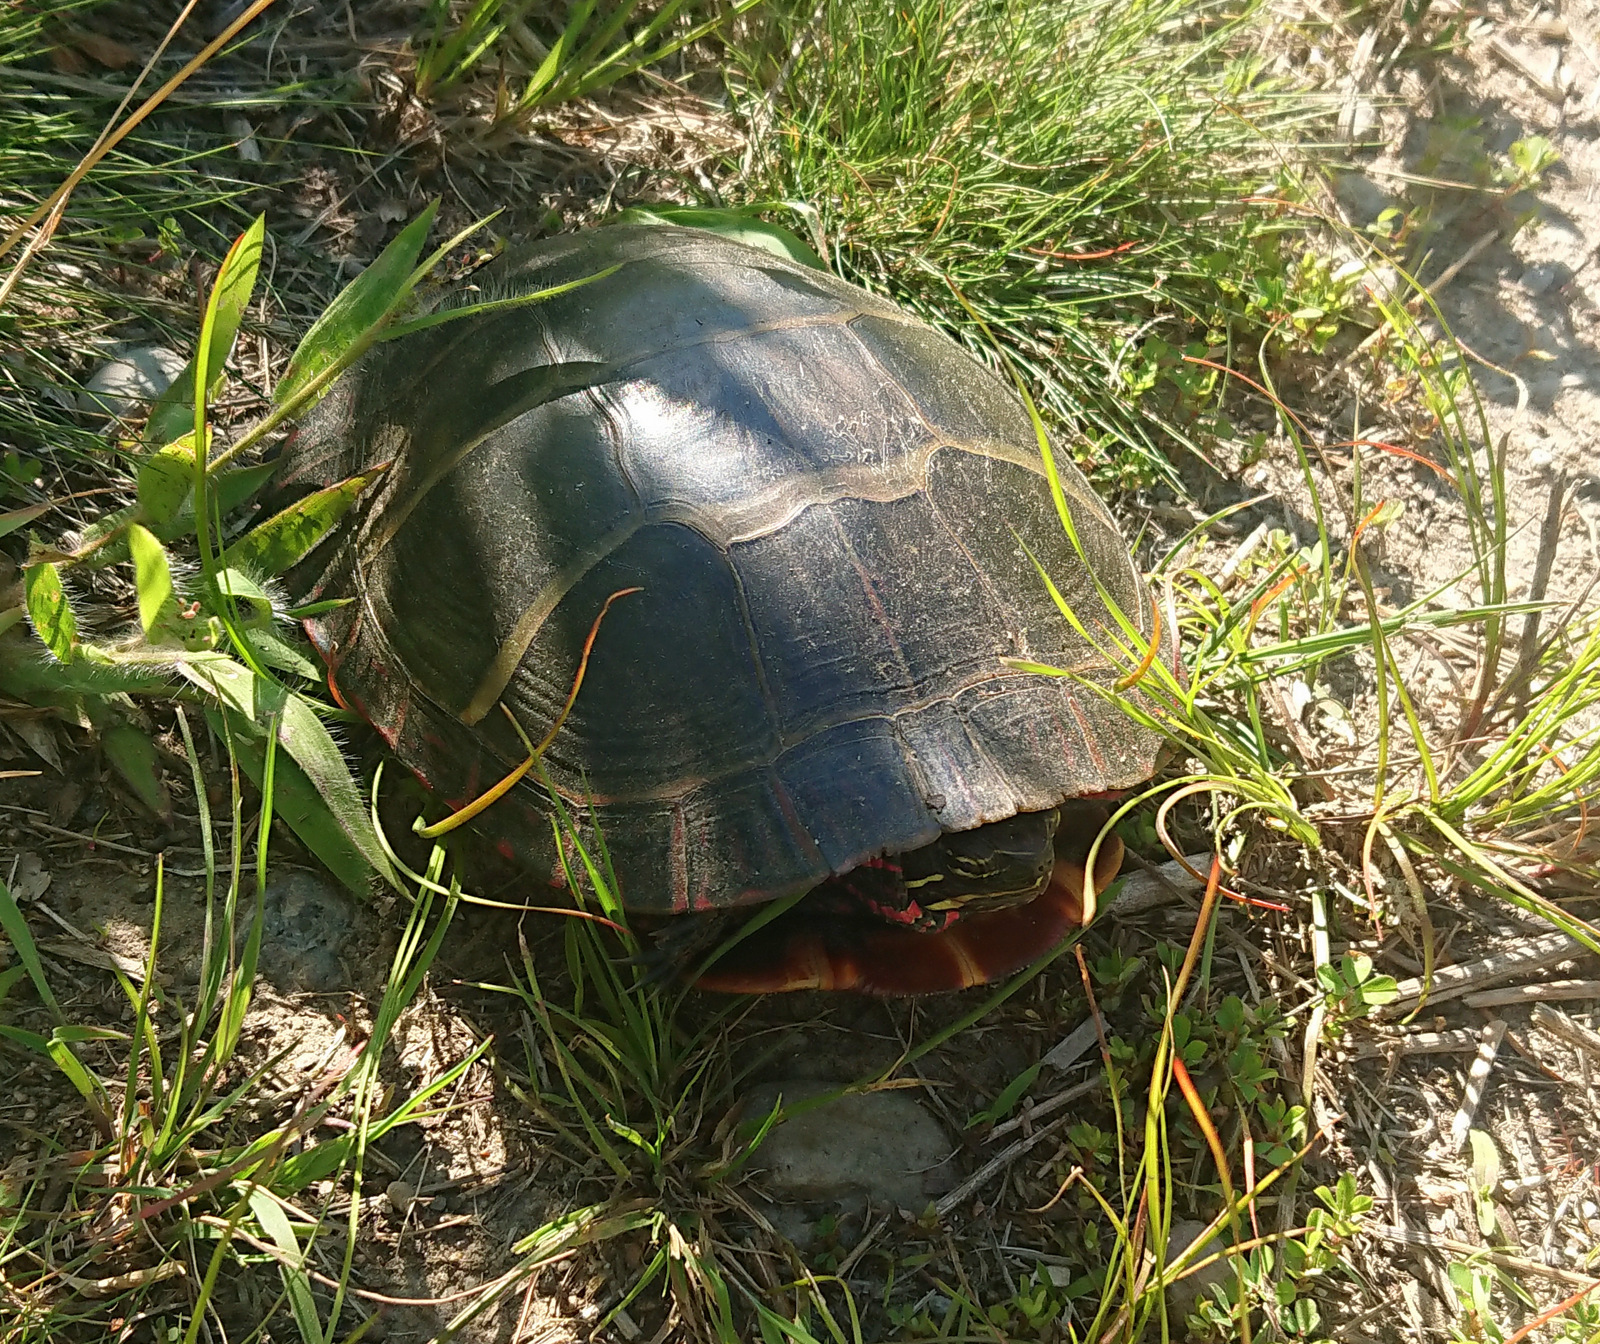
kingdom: Animalia
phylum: Chordata
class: Testudines
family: Emydidae
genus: Chrysemys
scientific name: Chrysemys picta
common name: Painted turtle
